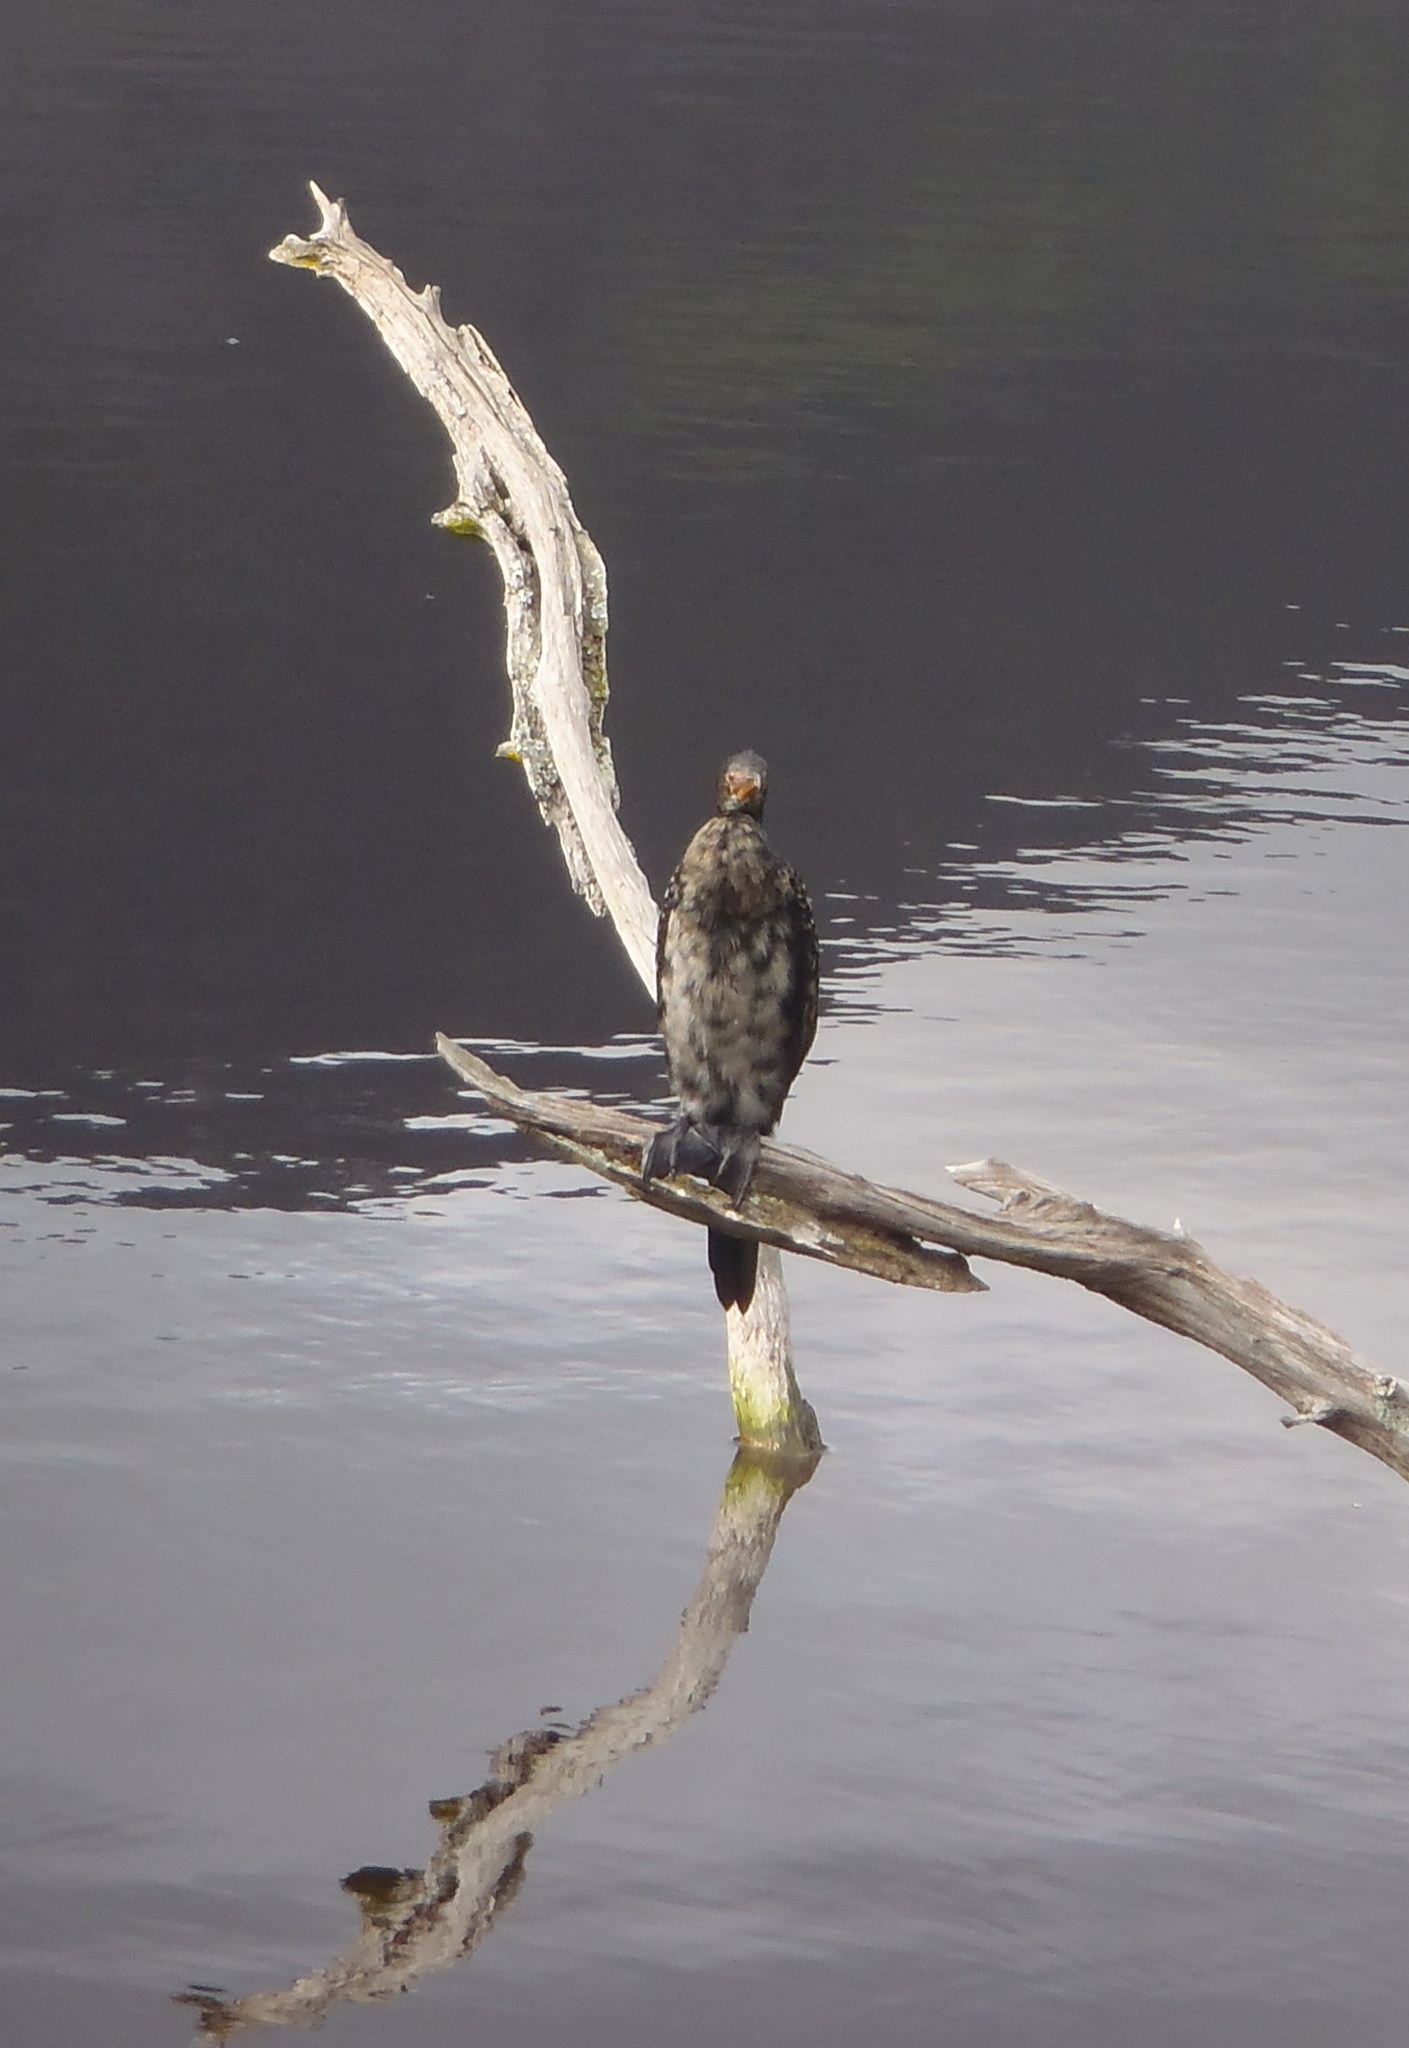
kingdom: Animalia
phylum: Chordata
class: Aves
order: Suliformes
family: Phalacrocoracidae
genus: Microcarbo
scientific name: Microcarbo africanus
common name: Long-tailed cormorant
